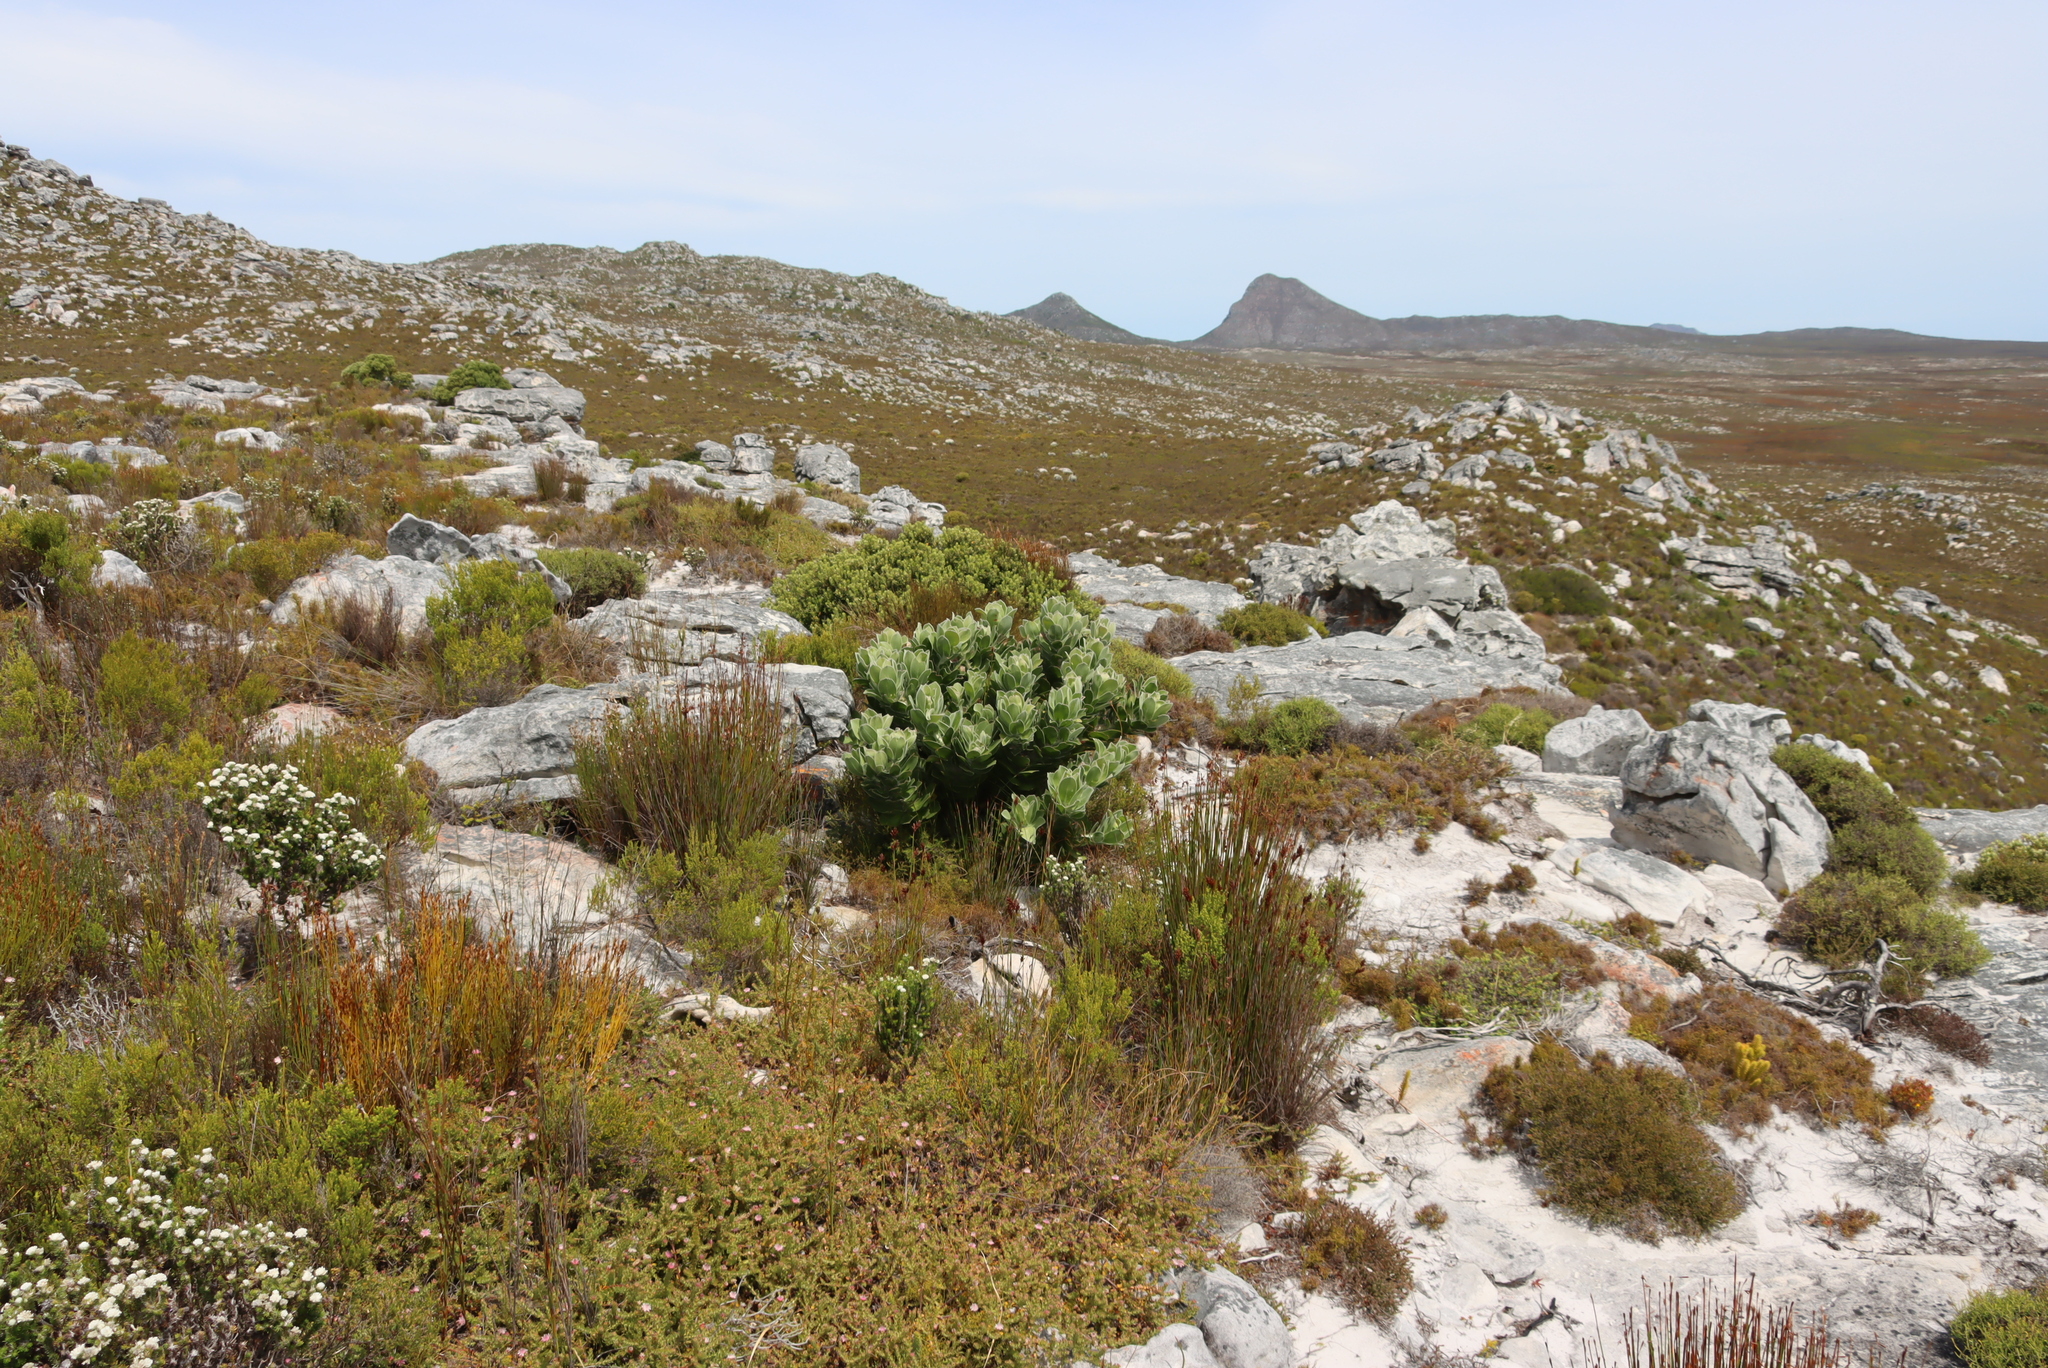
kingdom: Plantae
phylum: Tracheophyta
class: Magnoliopsida
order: Proteales
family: Proteaceae
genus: Leucospermum
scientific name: Leucospermum conocarpodendron
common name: Tree pincushion
